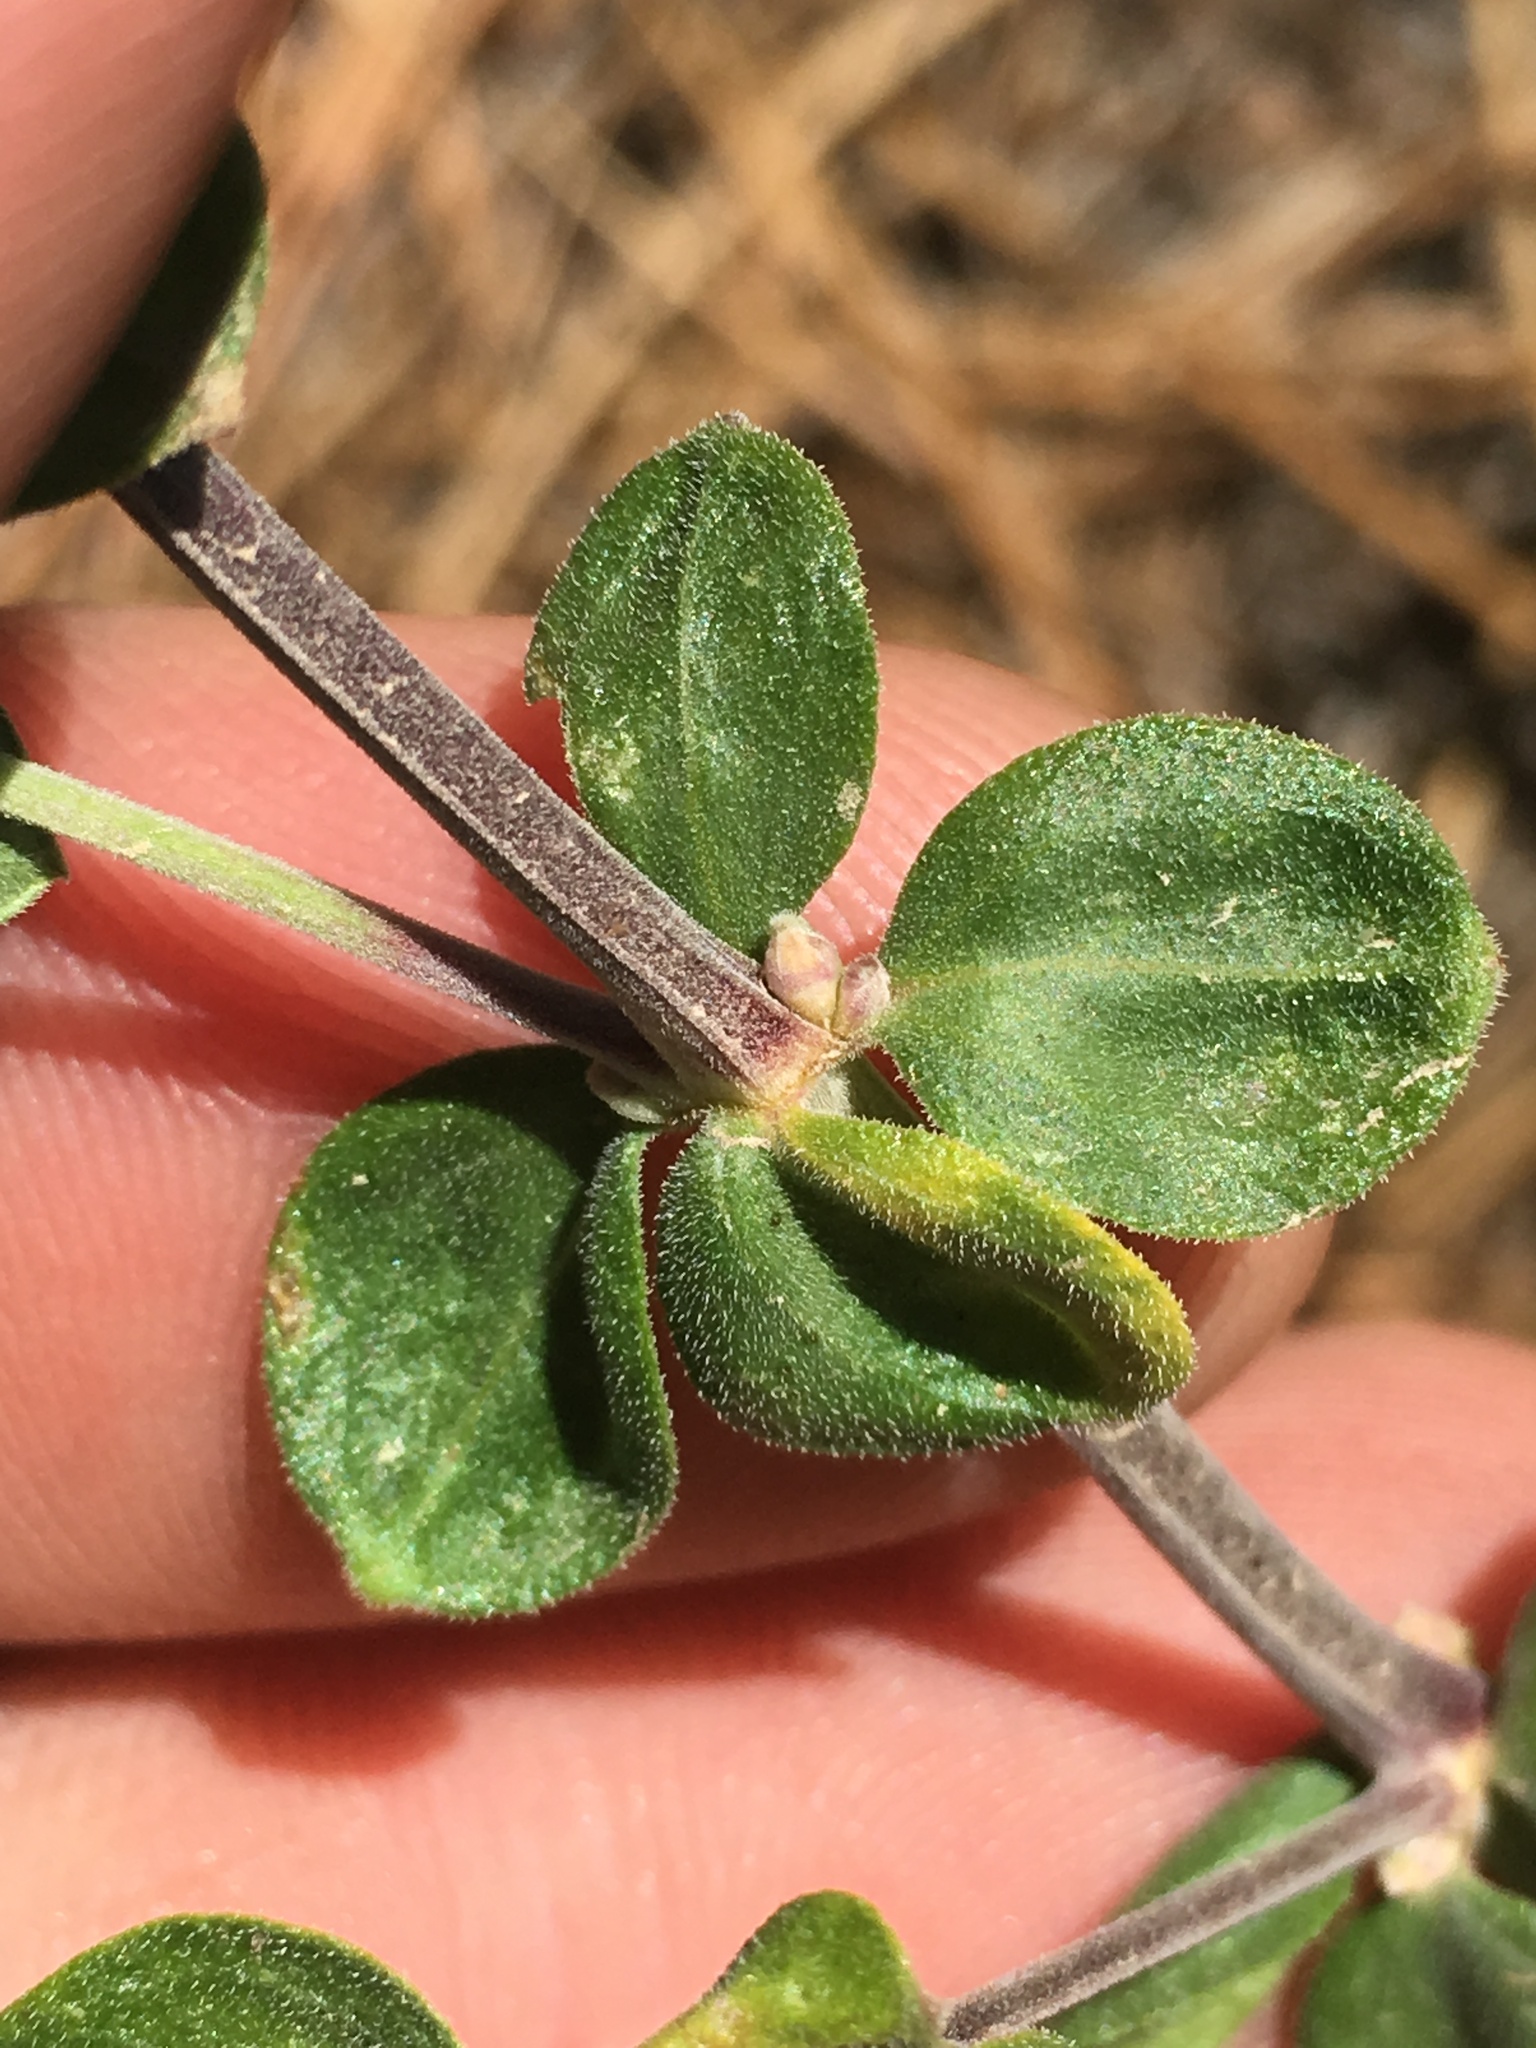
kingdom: Plantae
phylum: Tracheophyta
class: Magnoliopsida
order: Gentianales
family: Rubiaceae
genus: Galium
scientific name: Galium hallii
